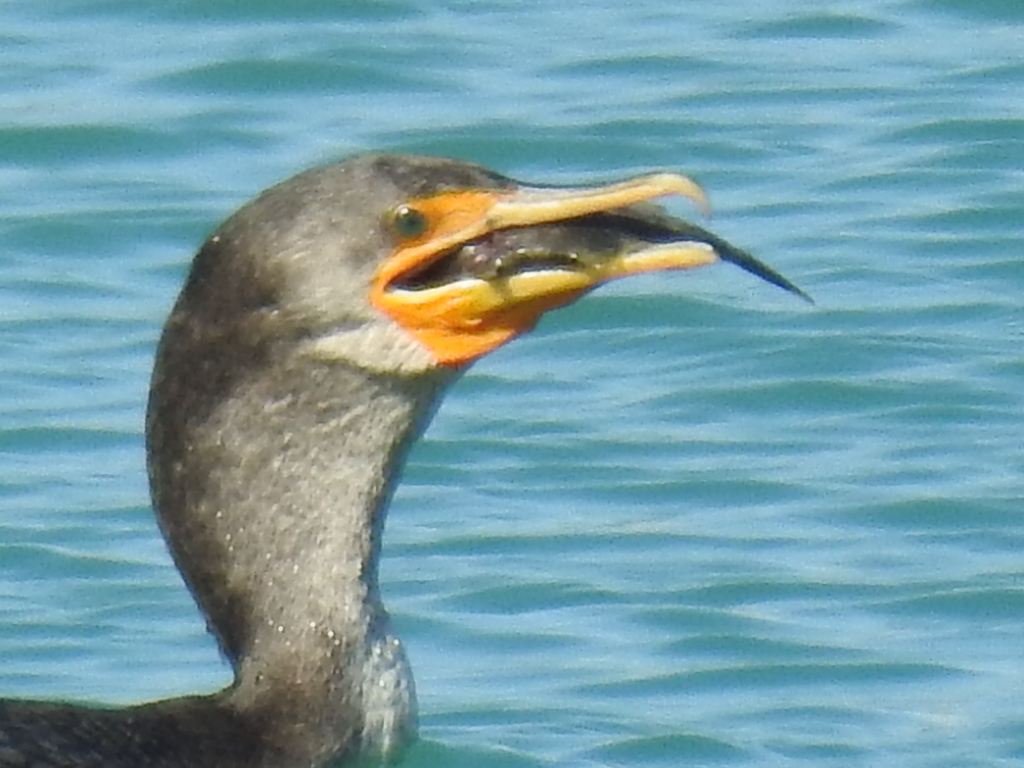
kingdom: Animalia
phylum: Chordata
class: Aves
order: Suliformes
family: Phalacrocoracidae
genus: Phalacrocorax
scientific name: Phalacrocorax auritus
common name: Double-crested cormorant
